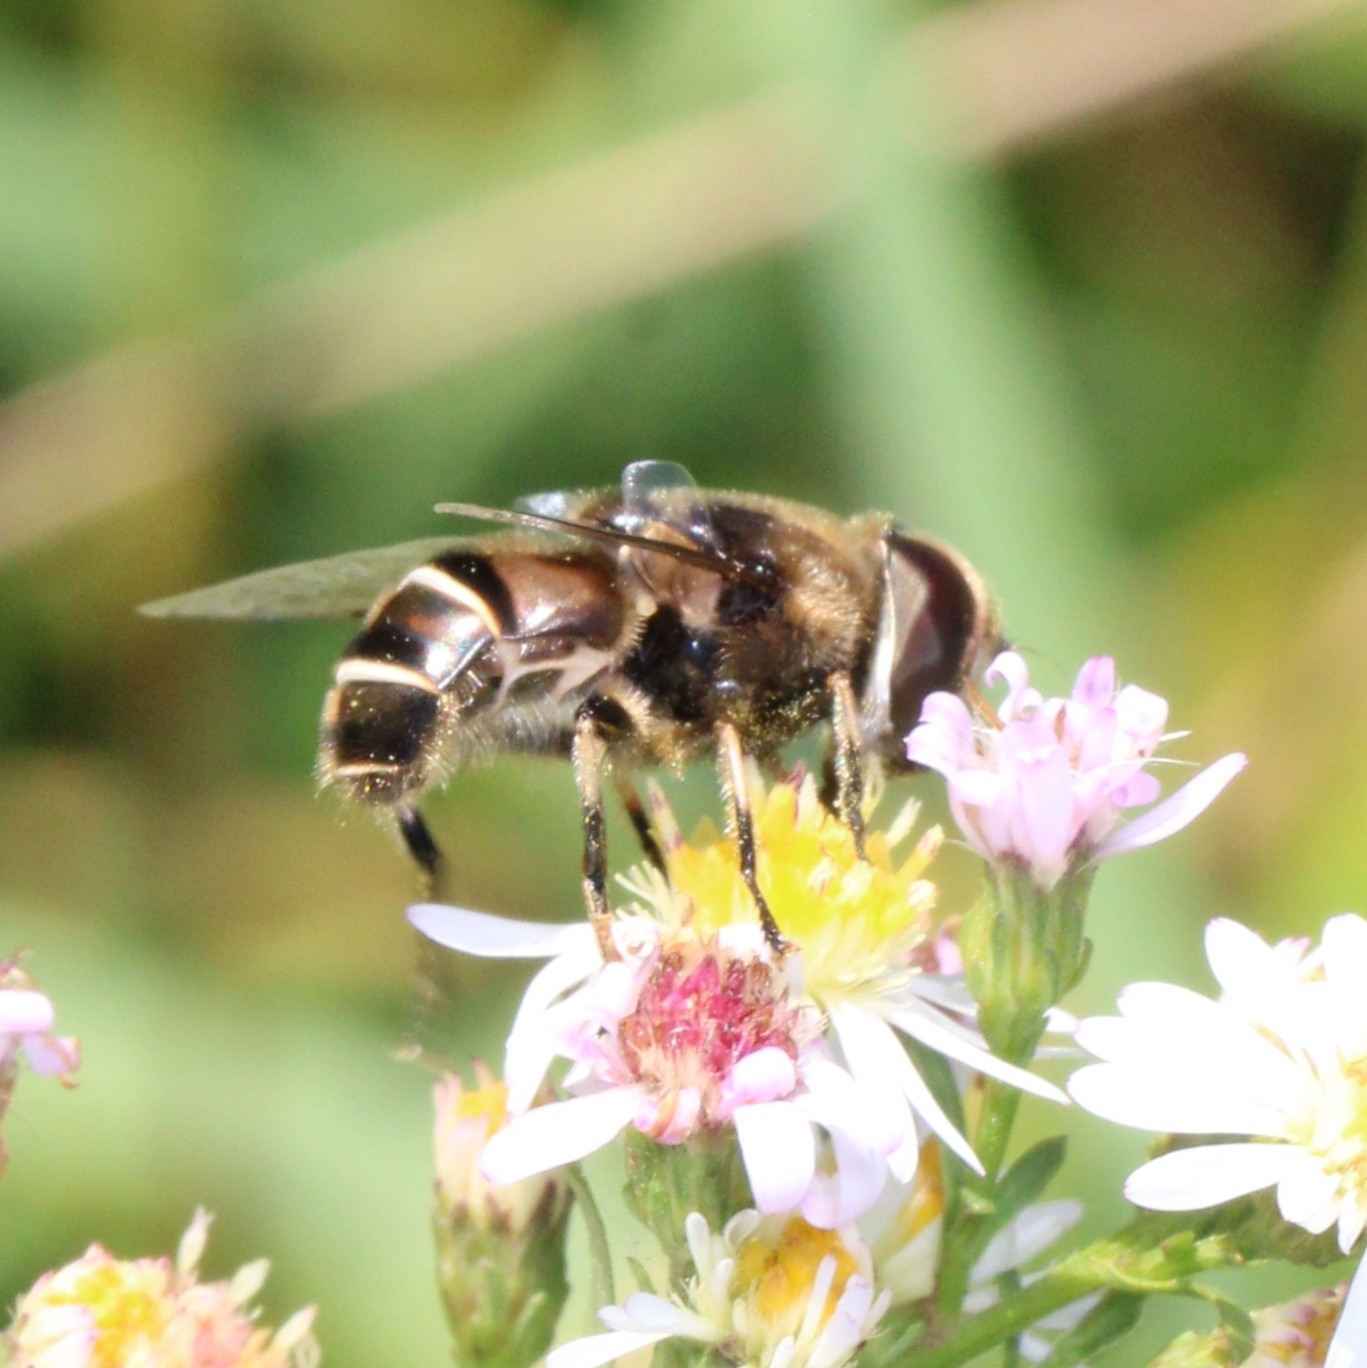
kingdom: Animalia
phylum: Arthropoda
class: Insecta
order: Diptera
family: Syrphidae
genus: Eristalis
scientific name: Eristalis dimidiata
